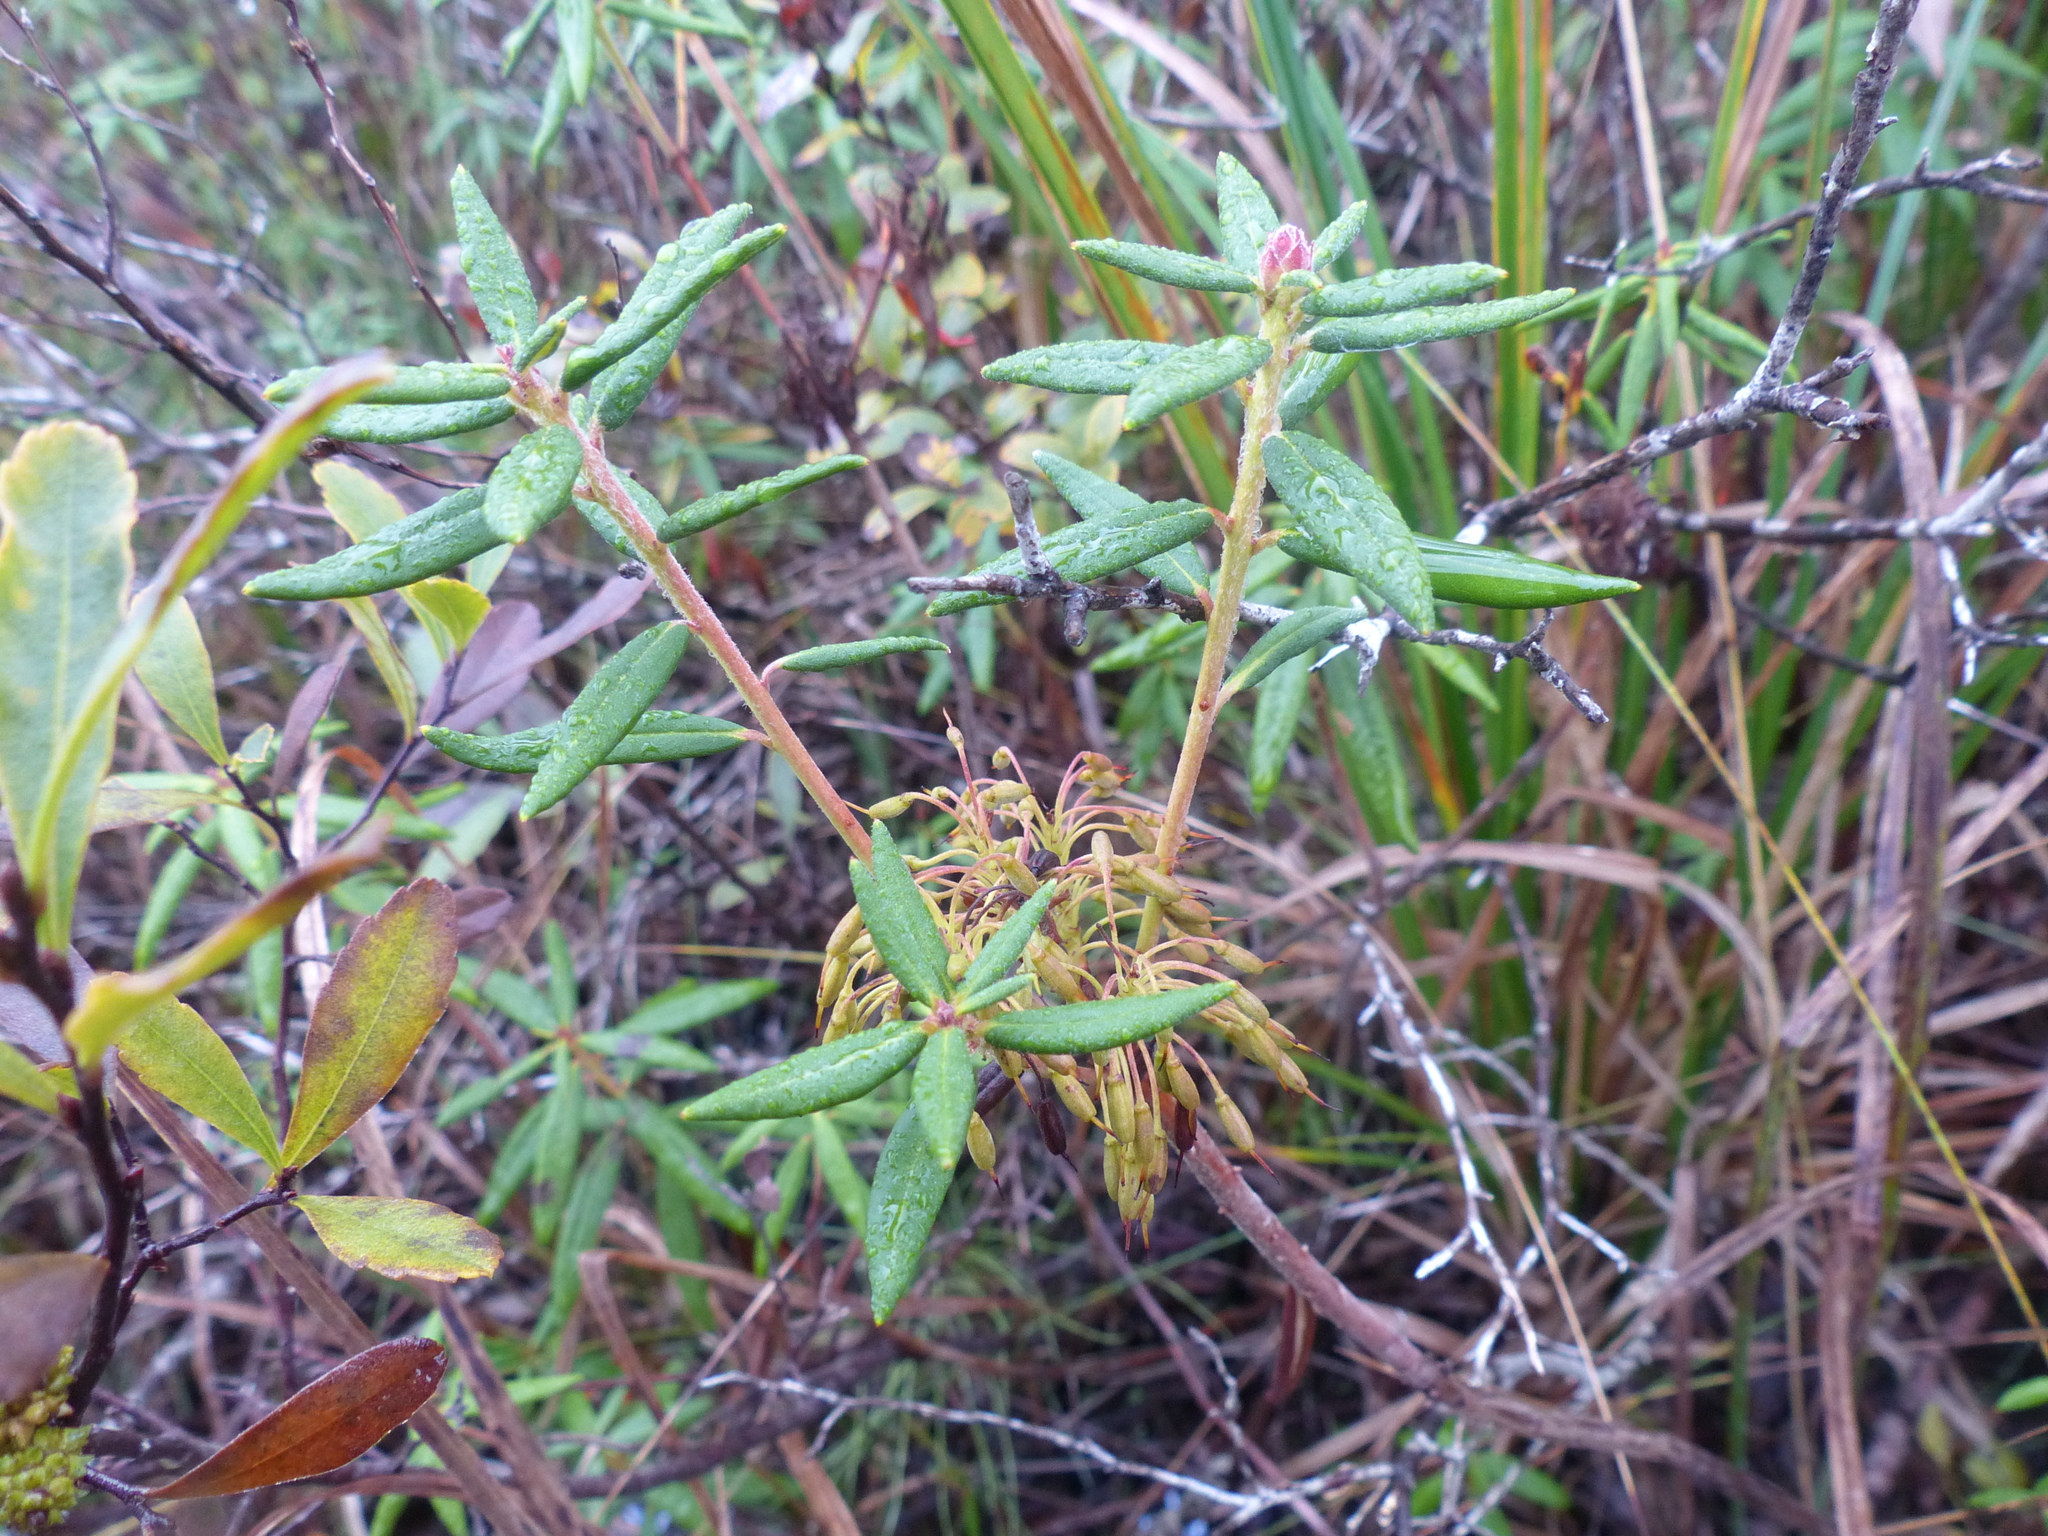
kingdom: Plantae
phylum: Tracheophyta
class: Magnoliopsida
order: Ericales
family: Ericaceae
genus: Rhododendron
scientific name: Rhododendron groenlandicum
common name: Bog labrador tea
